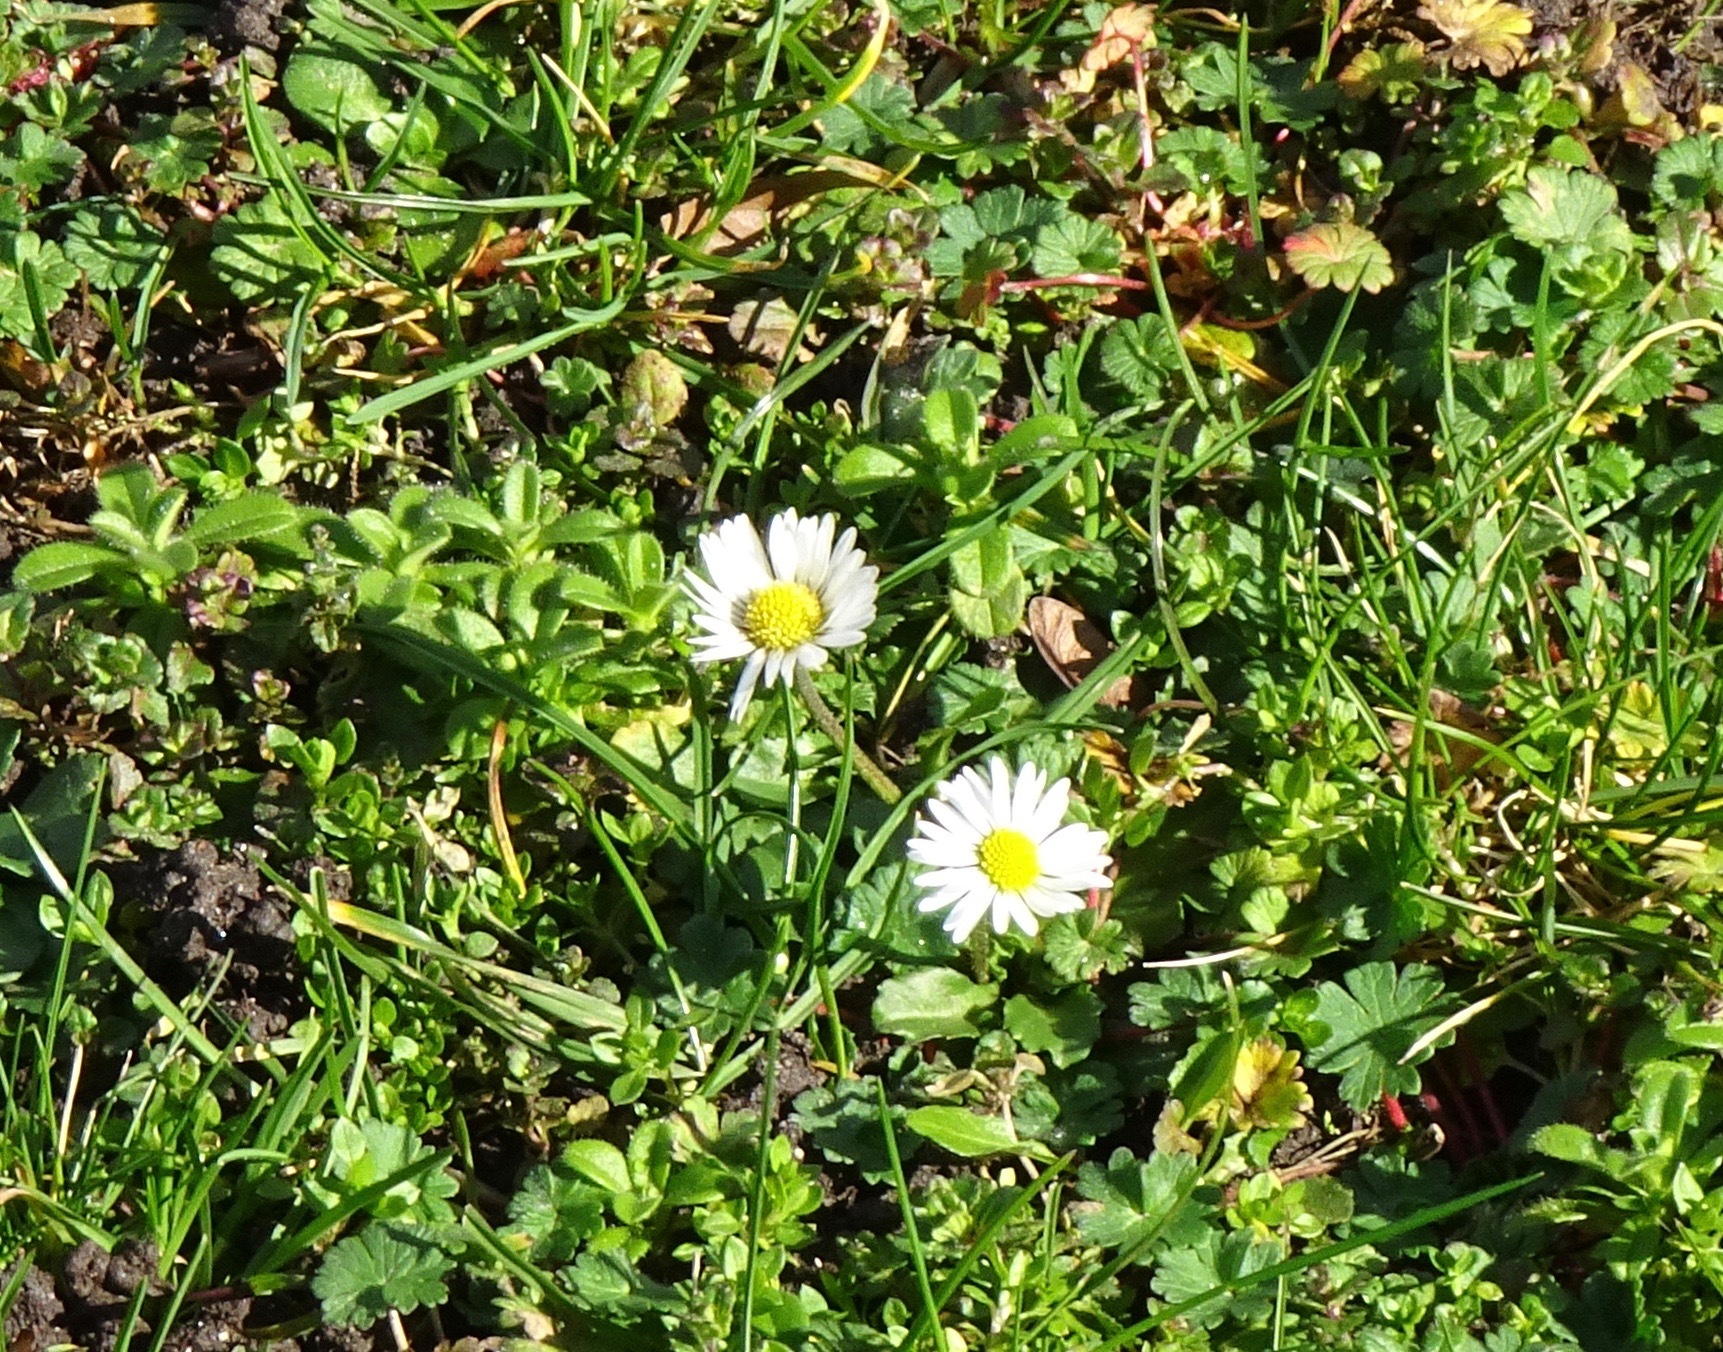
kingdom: Plantae
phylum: Tracheophyta
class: Magnoliopsida
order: Asterales
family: Asteraceae
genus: Bellis
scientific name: Bellis perennis
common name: Lawndaisy
